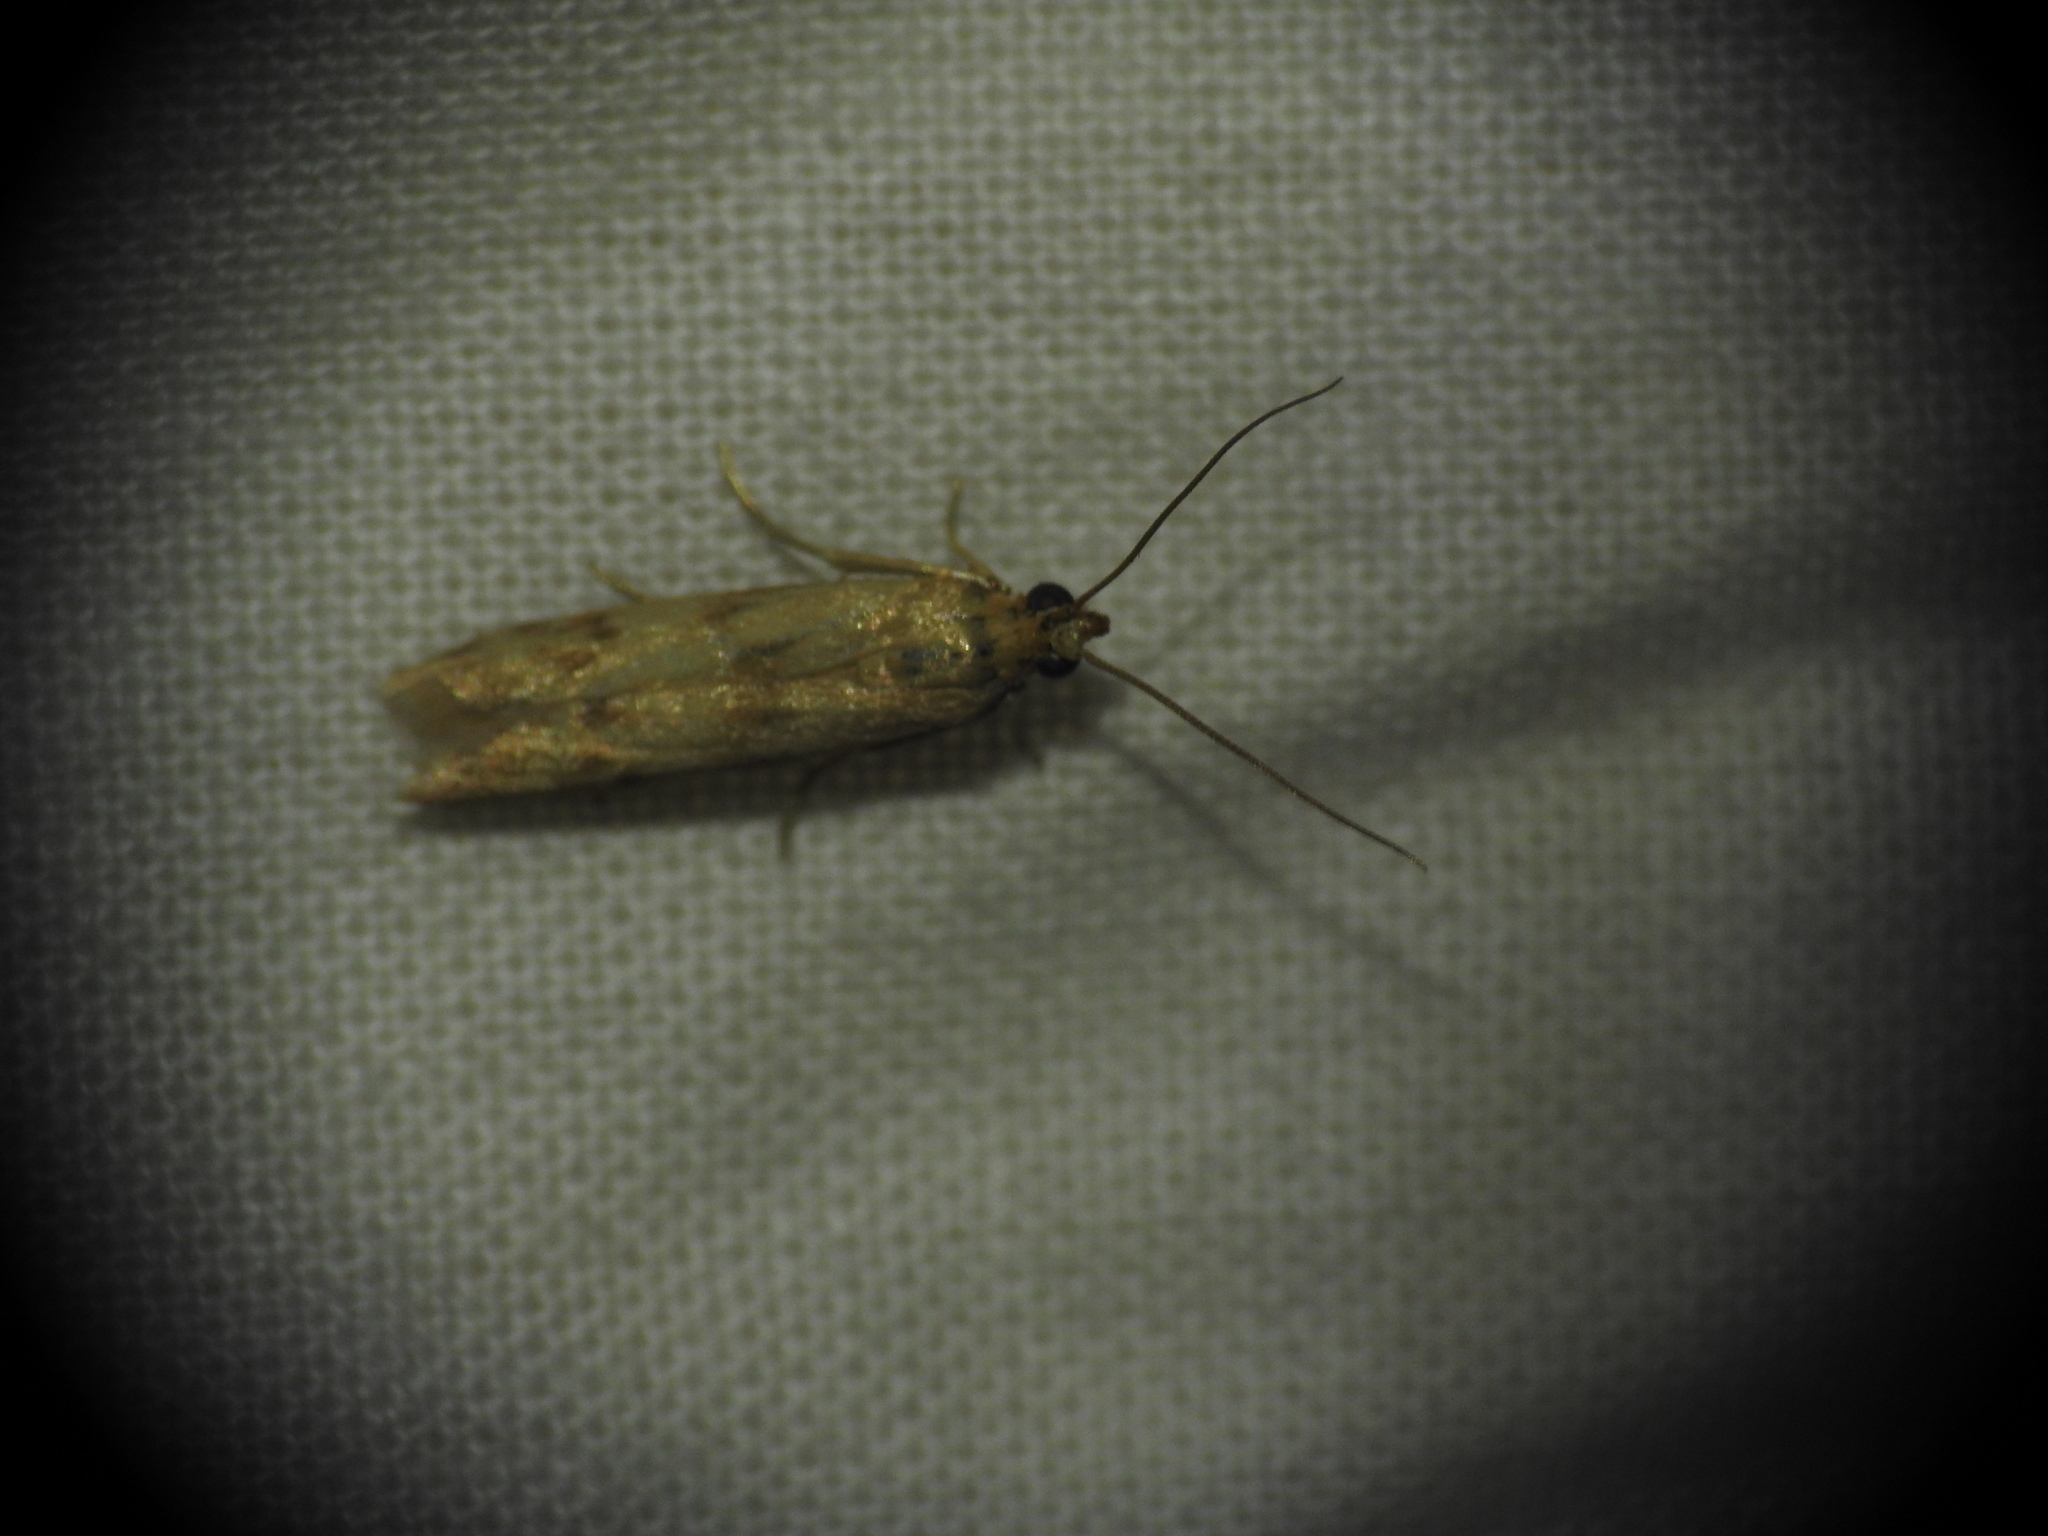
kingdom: Animalia
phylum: Arthropoda
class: Insecta
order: Lepidoptera
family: Pyralidae
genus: Homoeosoma
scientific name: Homoeosoma sinuella
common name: Twin-barred knot-horn
